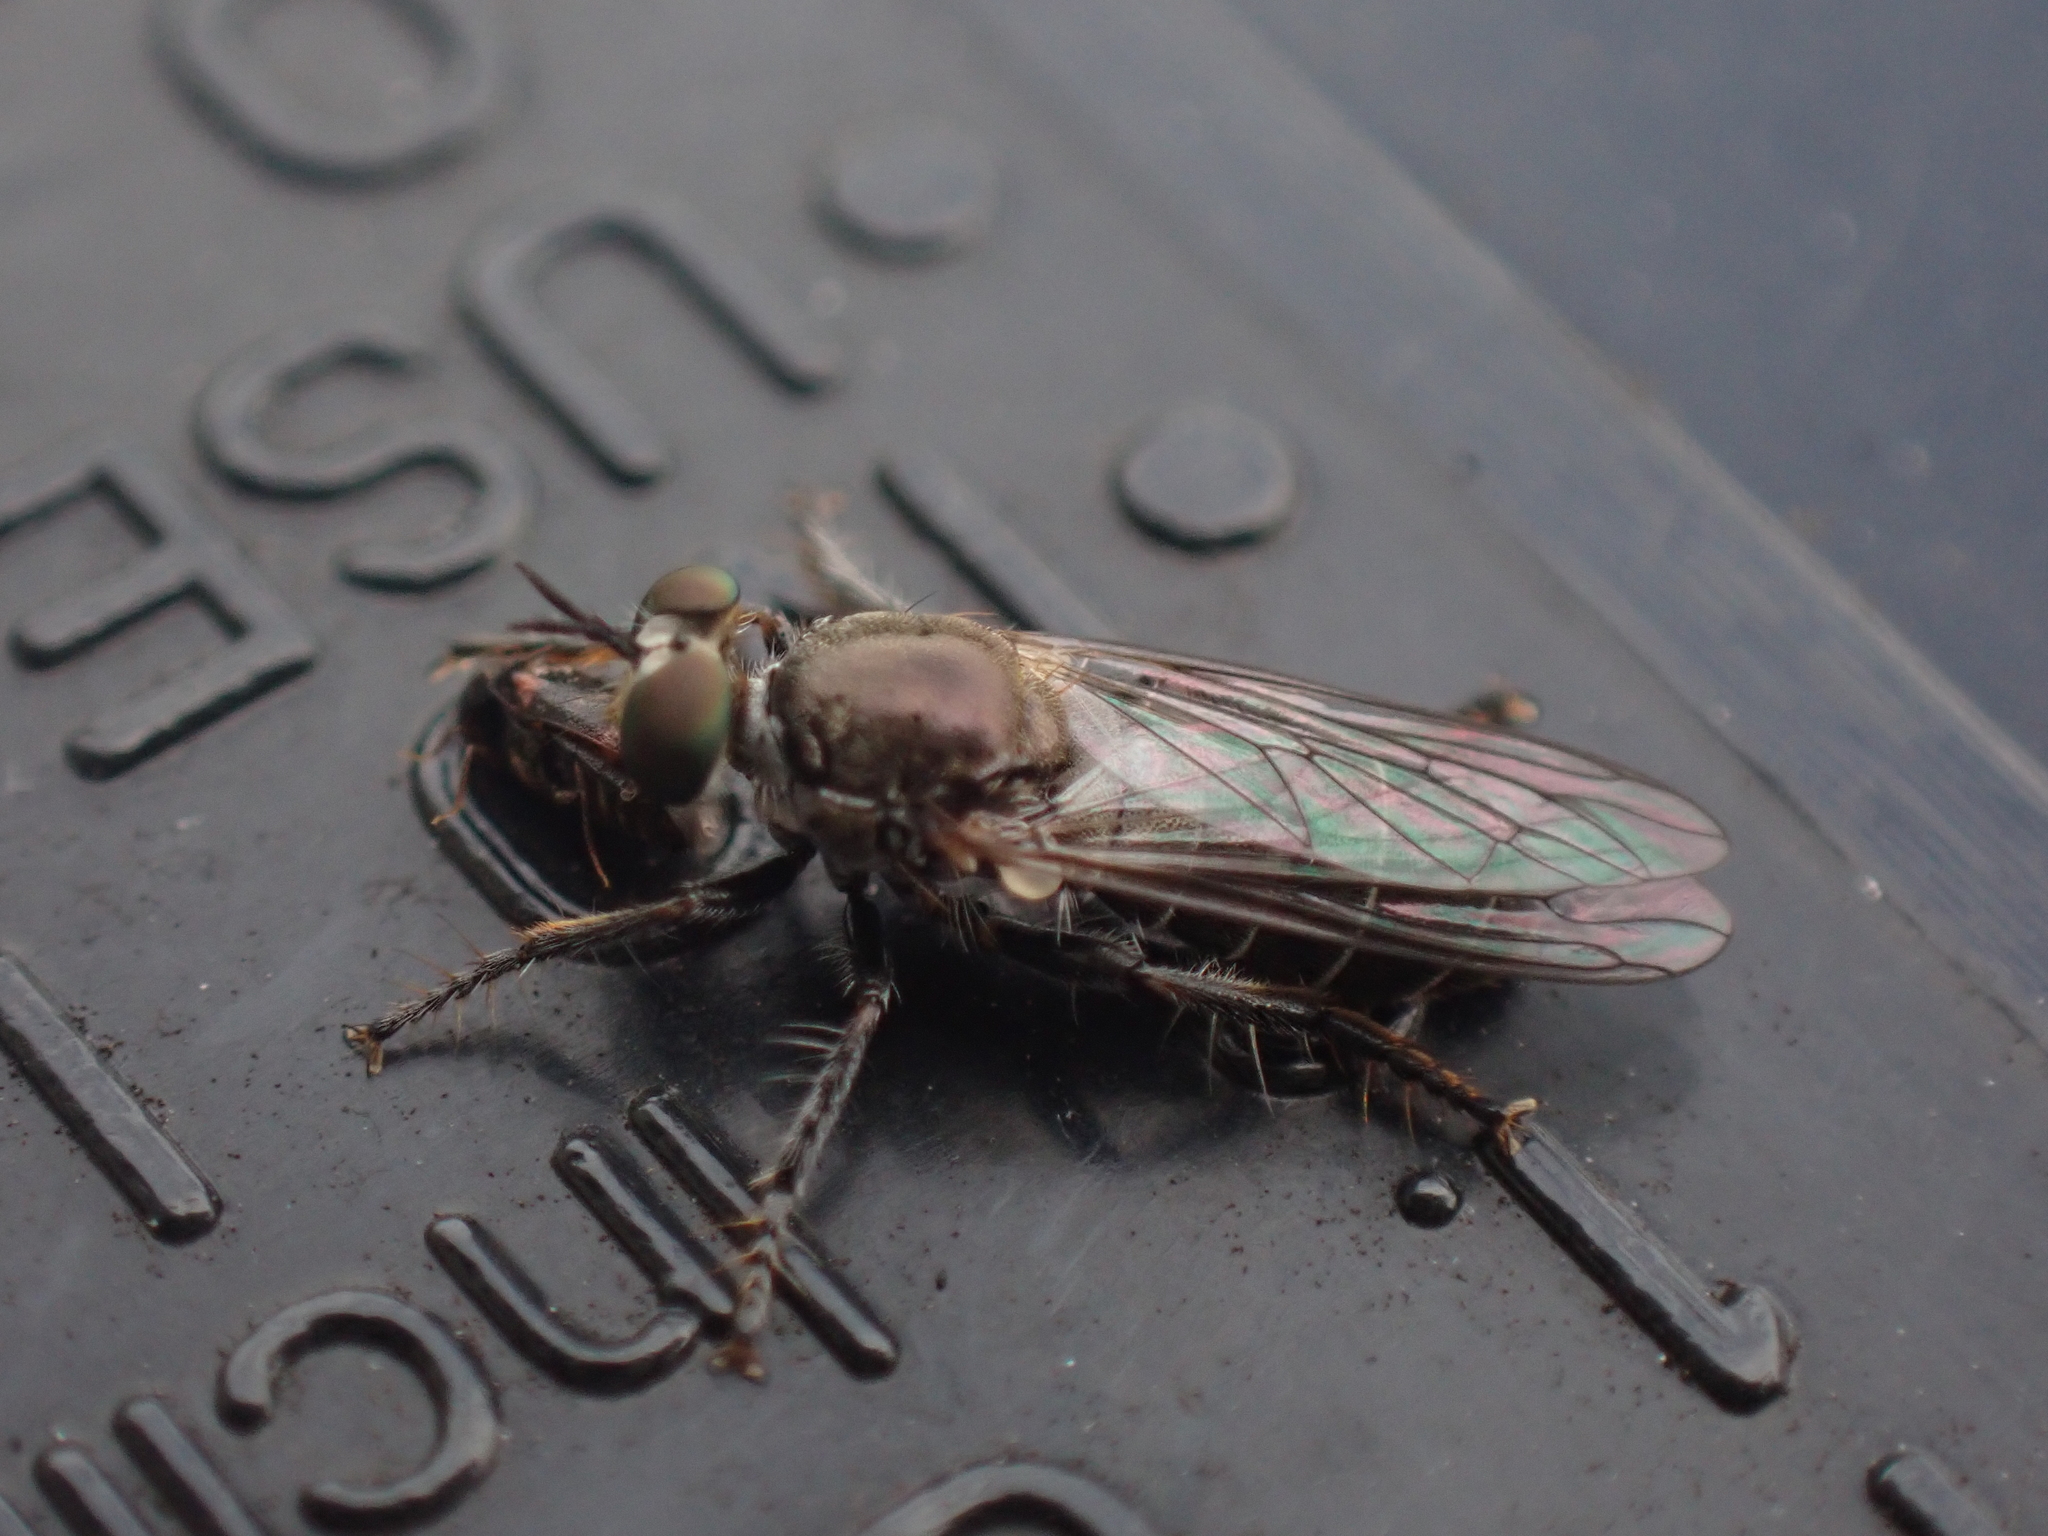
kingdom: Animalia
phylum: Arthropoda
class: Insecta
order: Diptera
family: Asilidae
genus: Atomosia
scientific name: Atomosia puella
